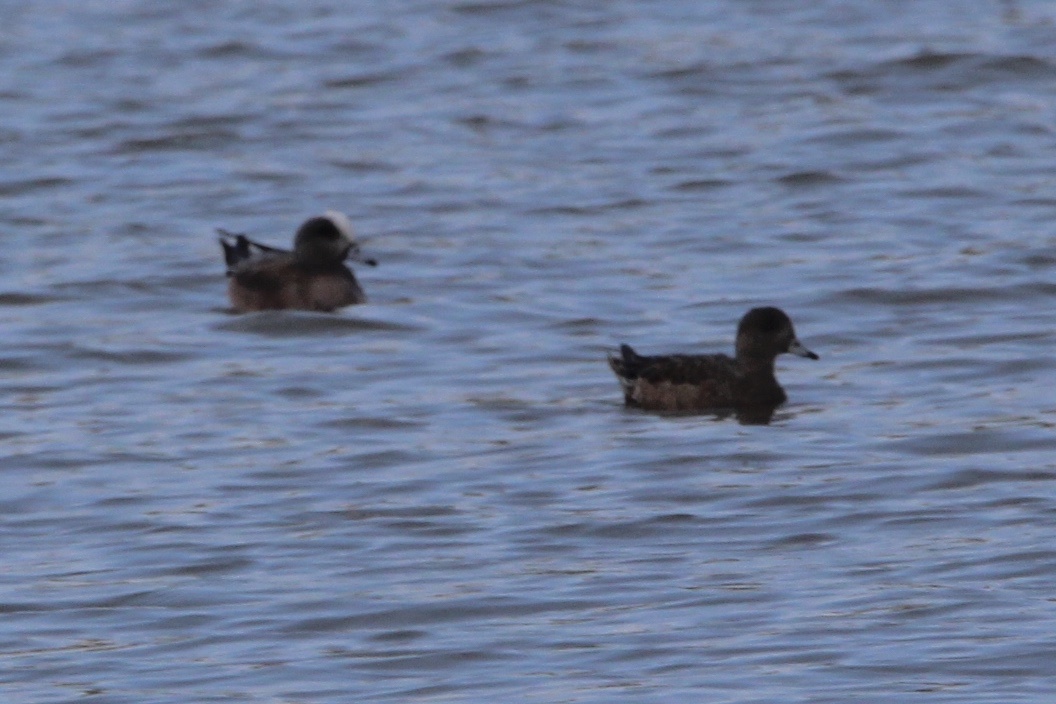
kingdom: Animalia
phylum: Chordata
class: Aves
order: Anseriformes
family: Anatidae
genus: Mareca
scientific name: Mareca americana
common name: American wigeon
